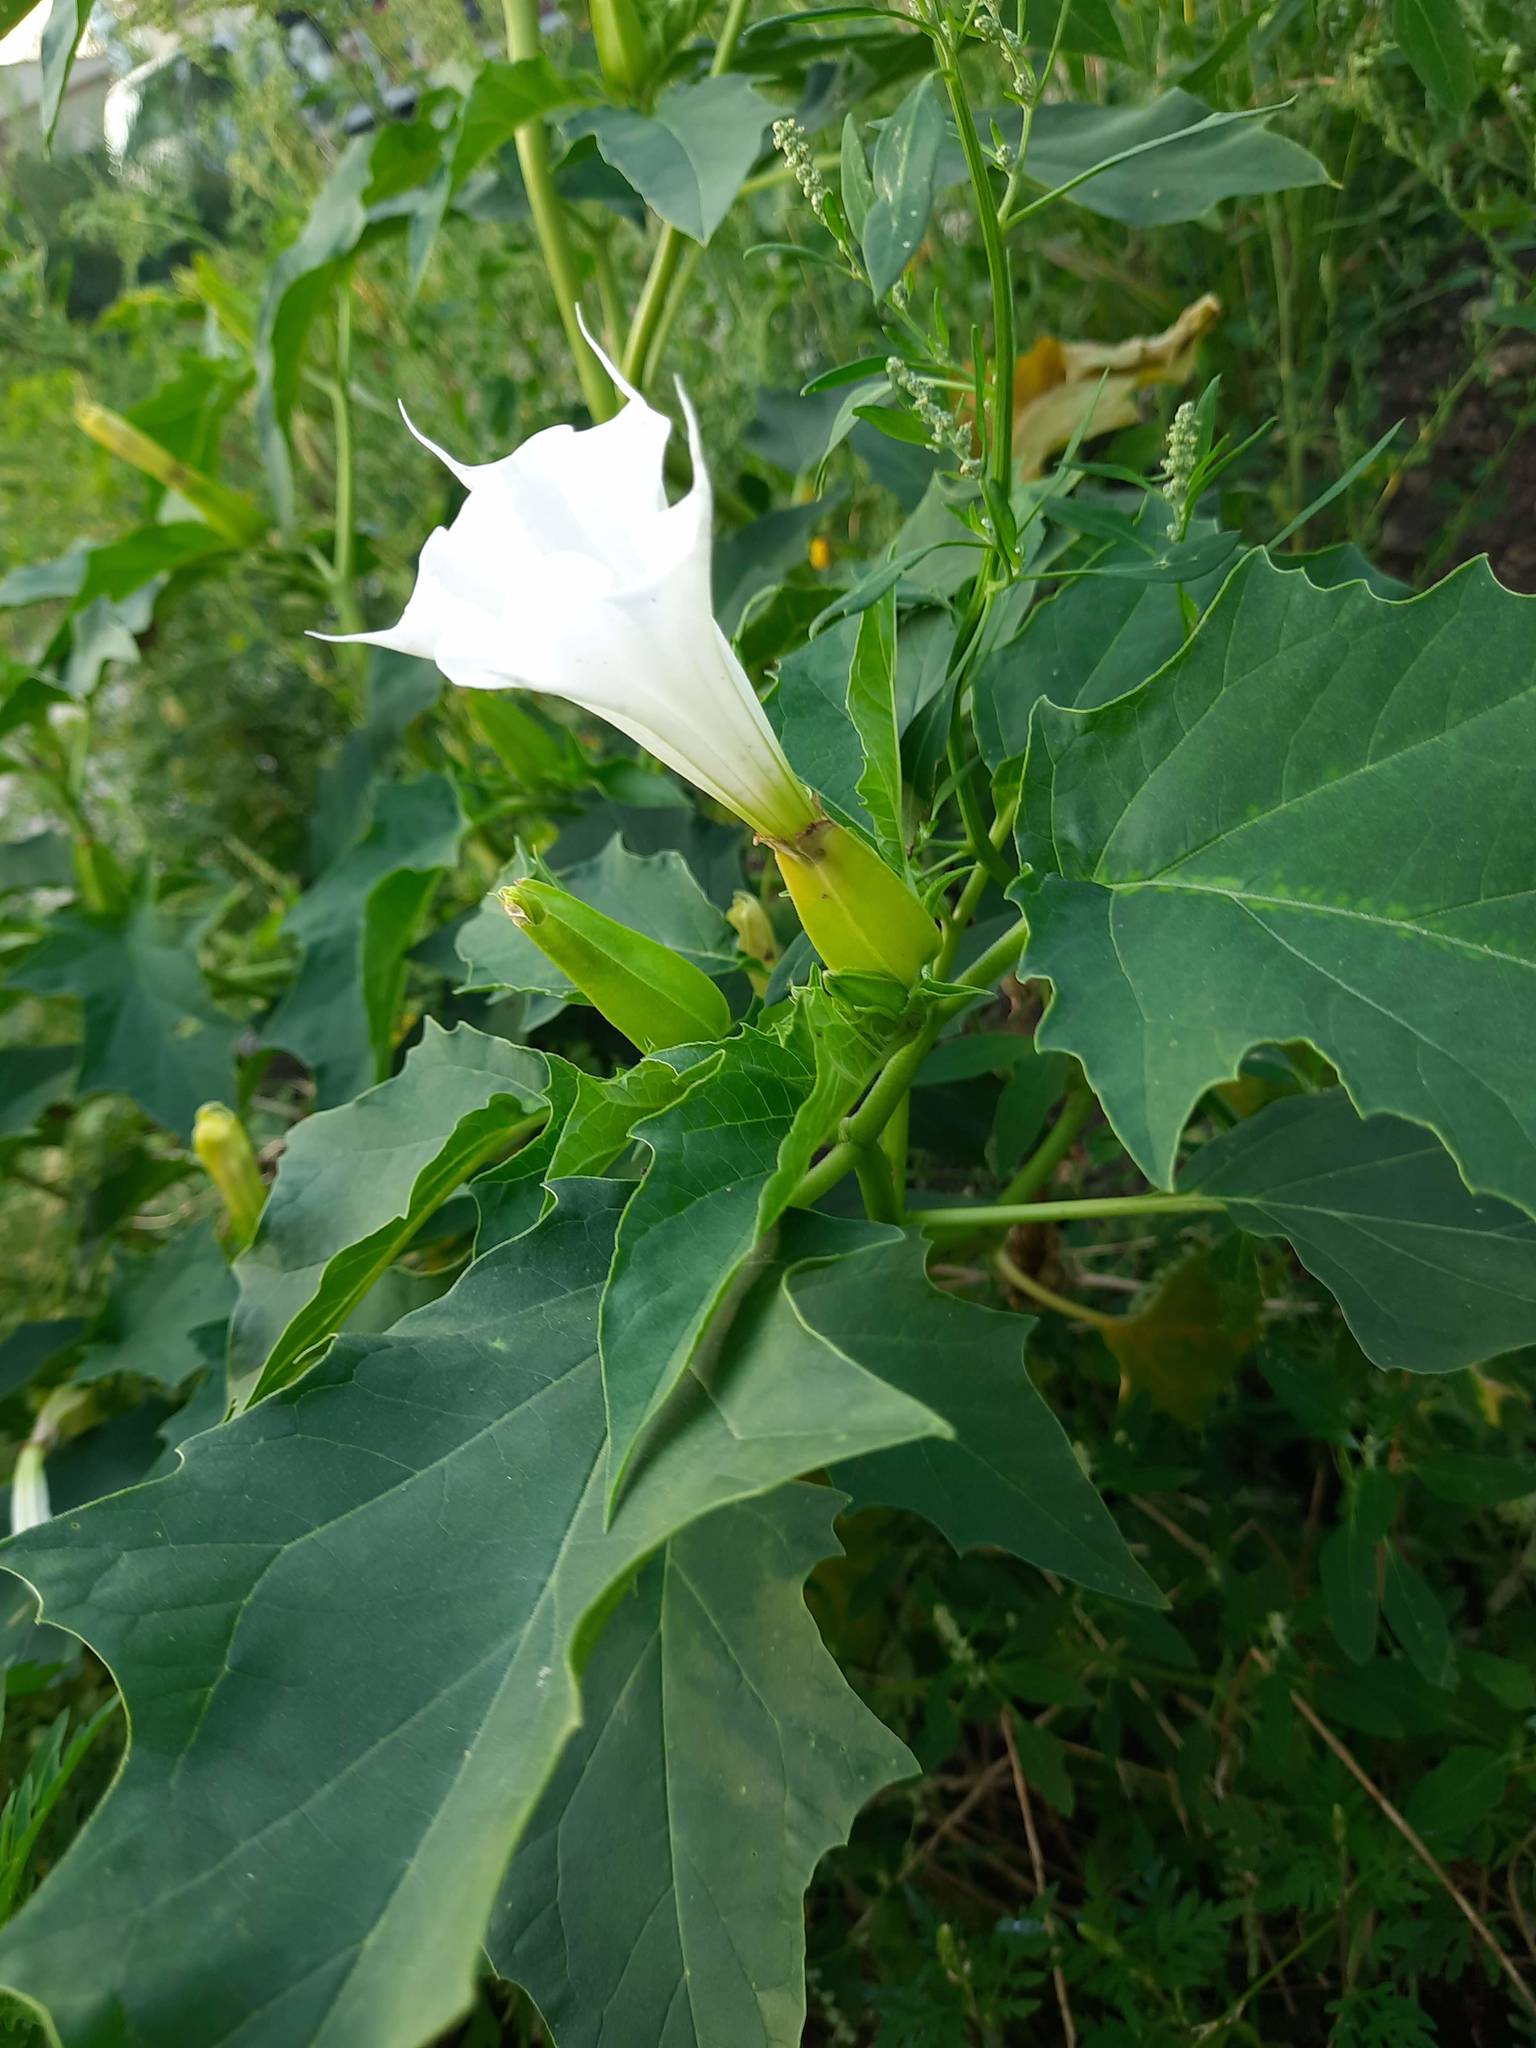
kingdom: Plantae
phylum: Tracheophyta
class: Magnoliopsida
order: Solanales
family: Solanaceae
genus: Datura
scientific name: Datura stramonium
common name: Thorn-apple
